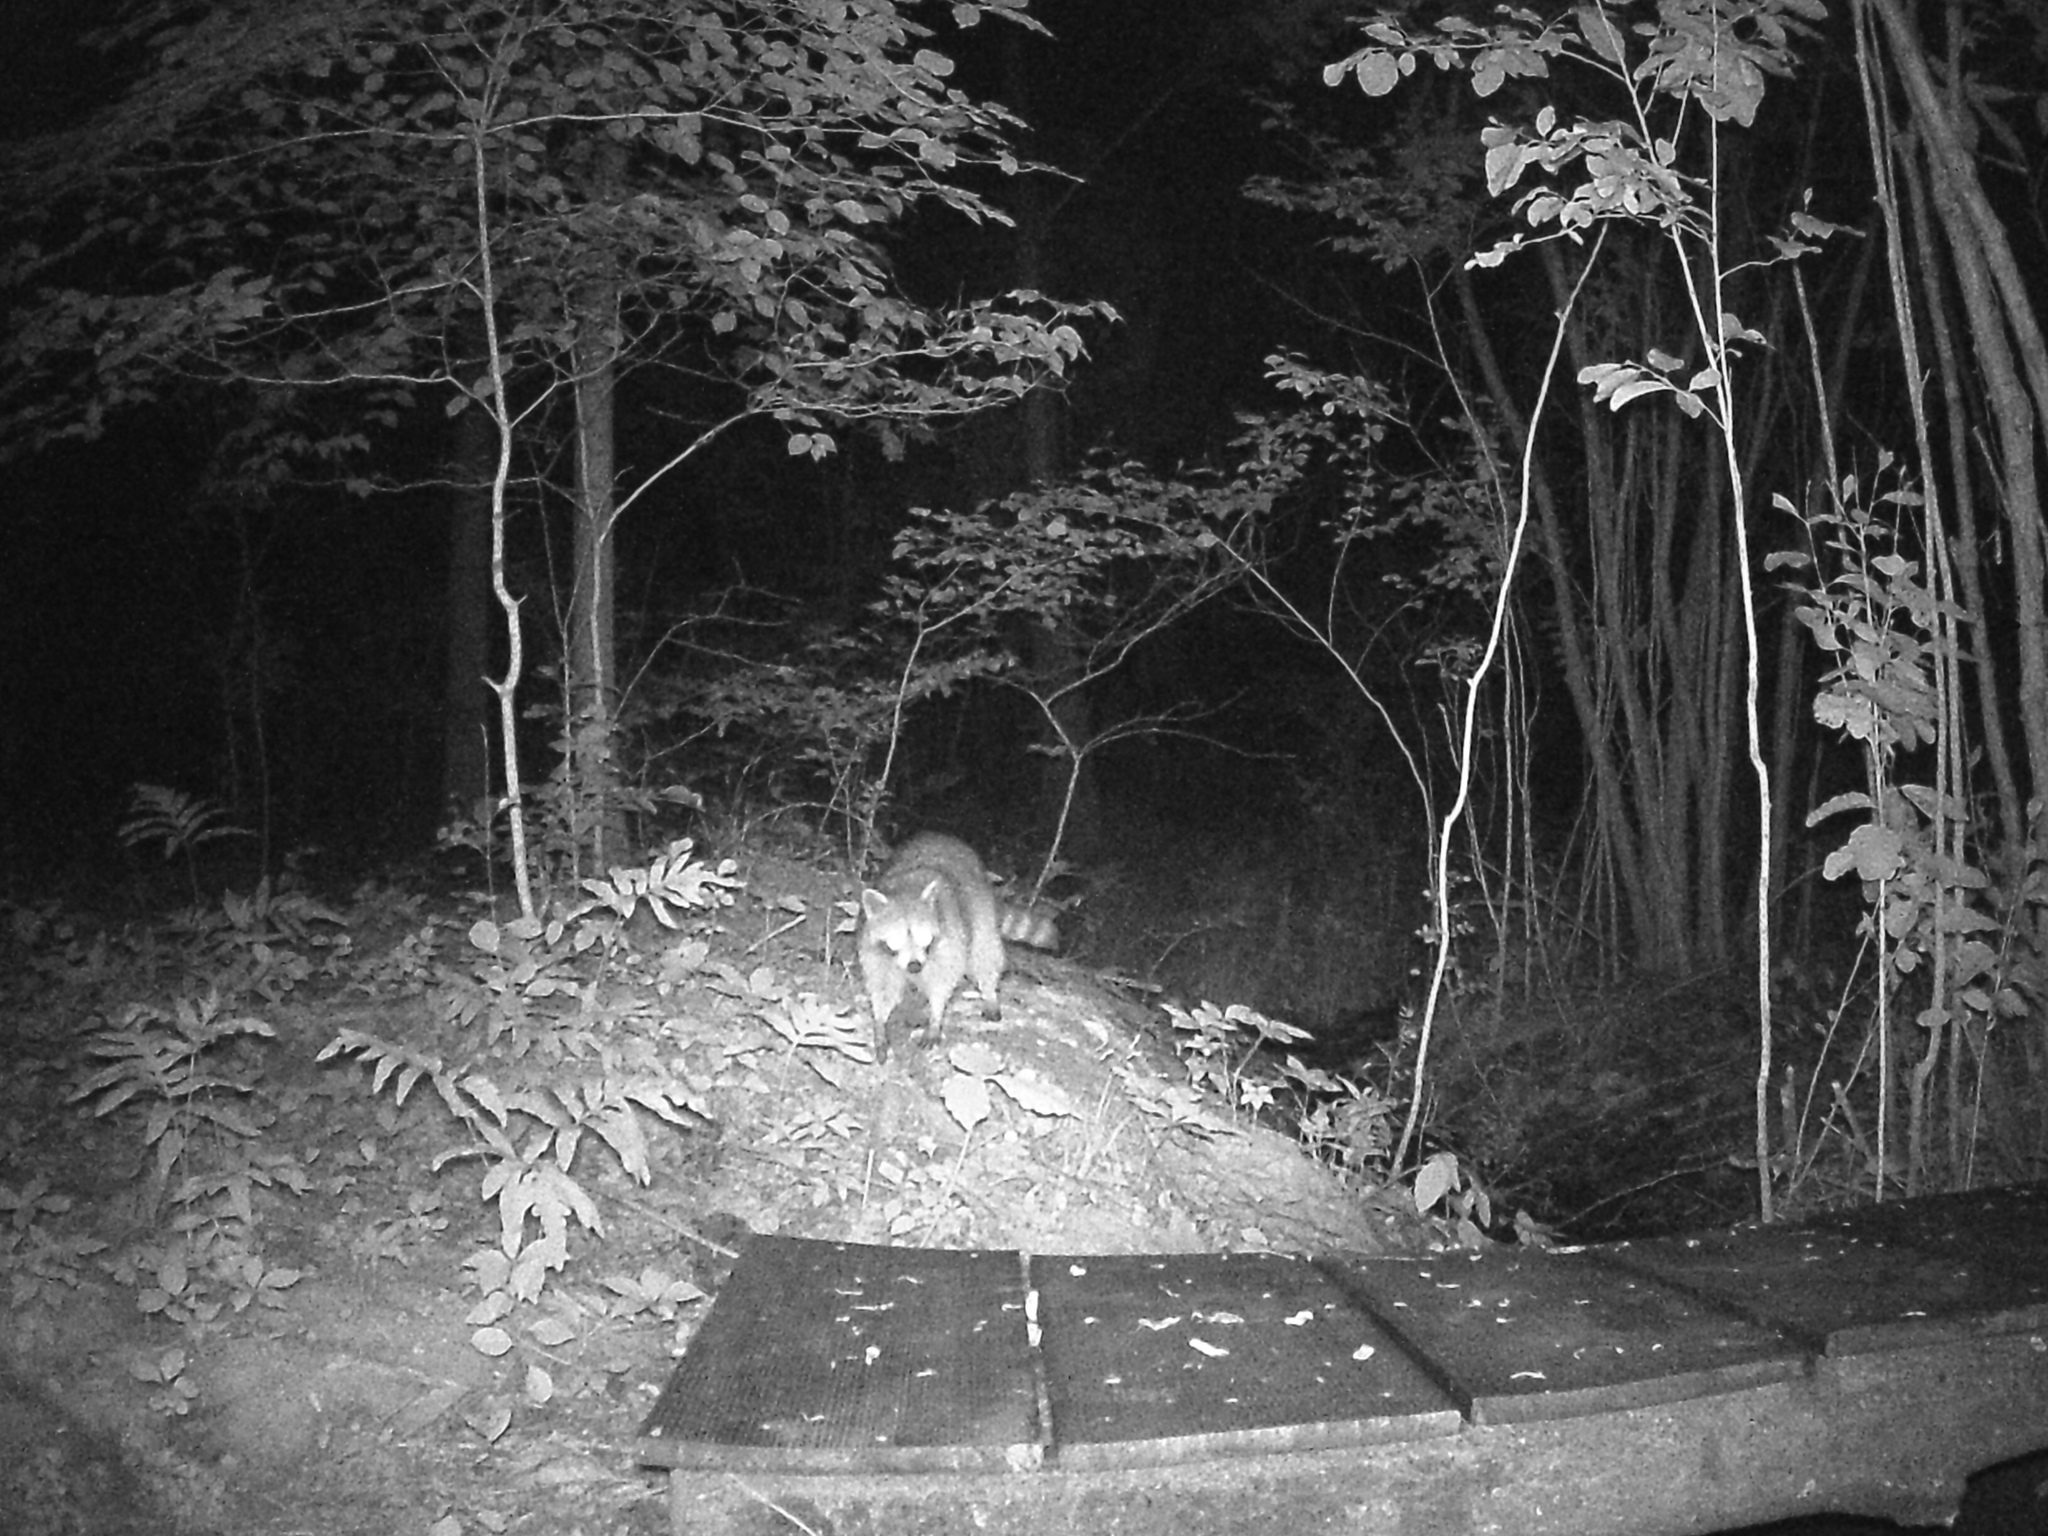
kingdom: Animalia
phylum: Chordata
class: Mammalia
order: Carnivora
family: Procyonidae
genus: Procyon
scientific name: Procyon lotor
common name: Raccoon
